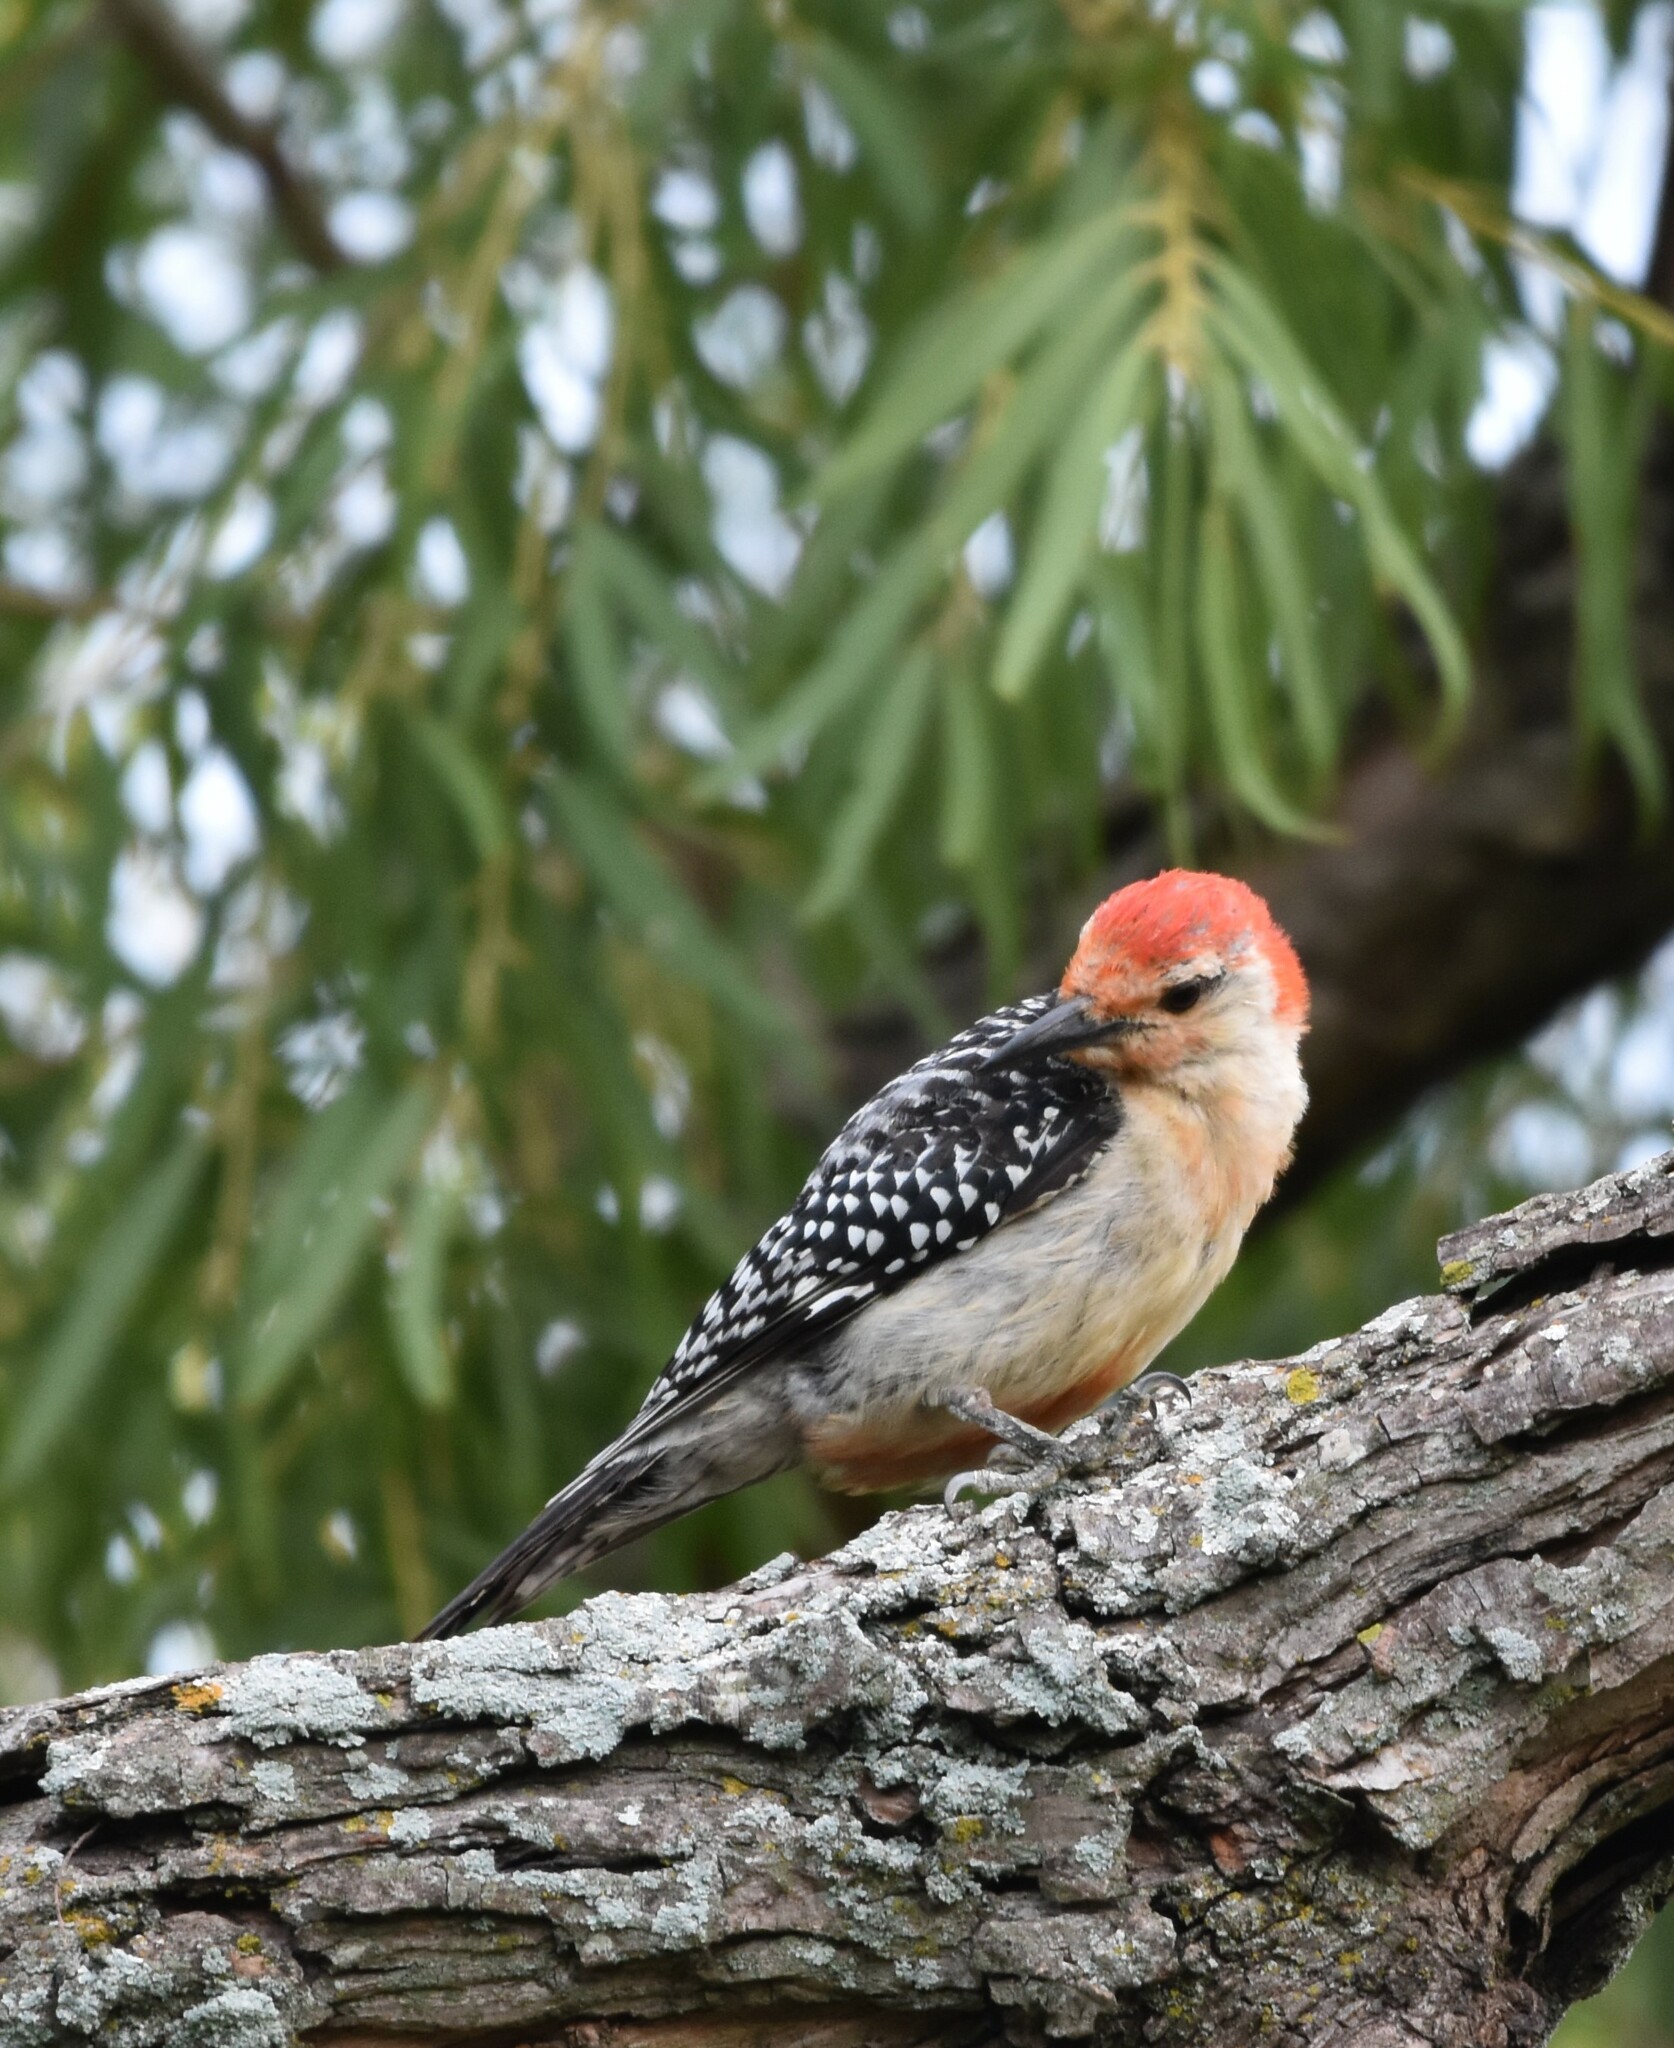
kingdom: Animalia
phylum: Chordata
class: Aves
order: Piciformes
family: Picidae
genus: Melanerpes
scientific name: Melanerpes carolinus
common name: Red-bellied woodpecker
